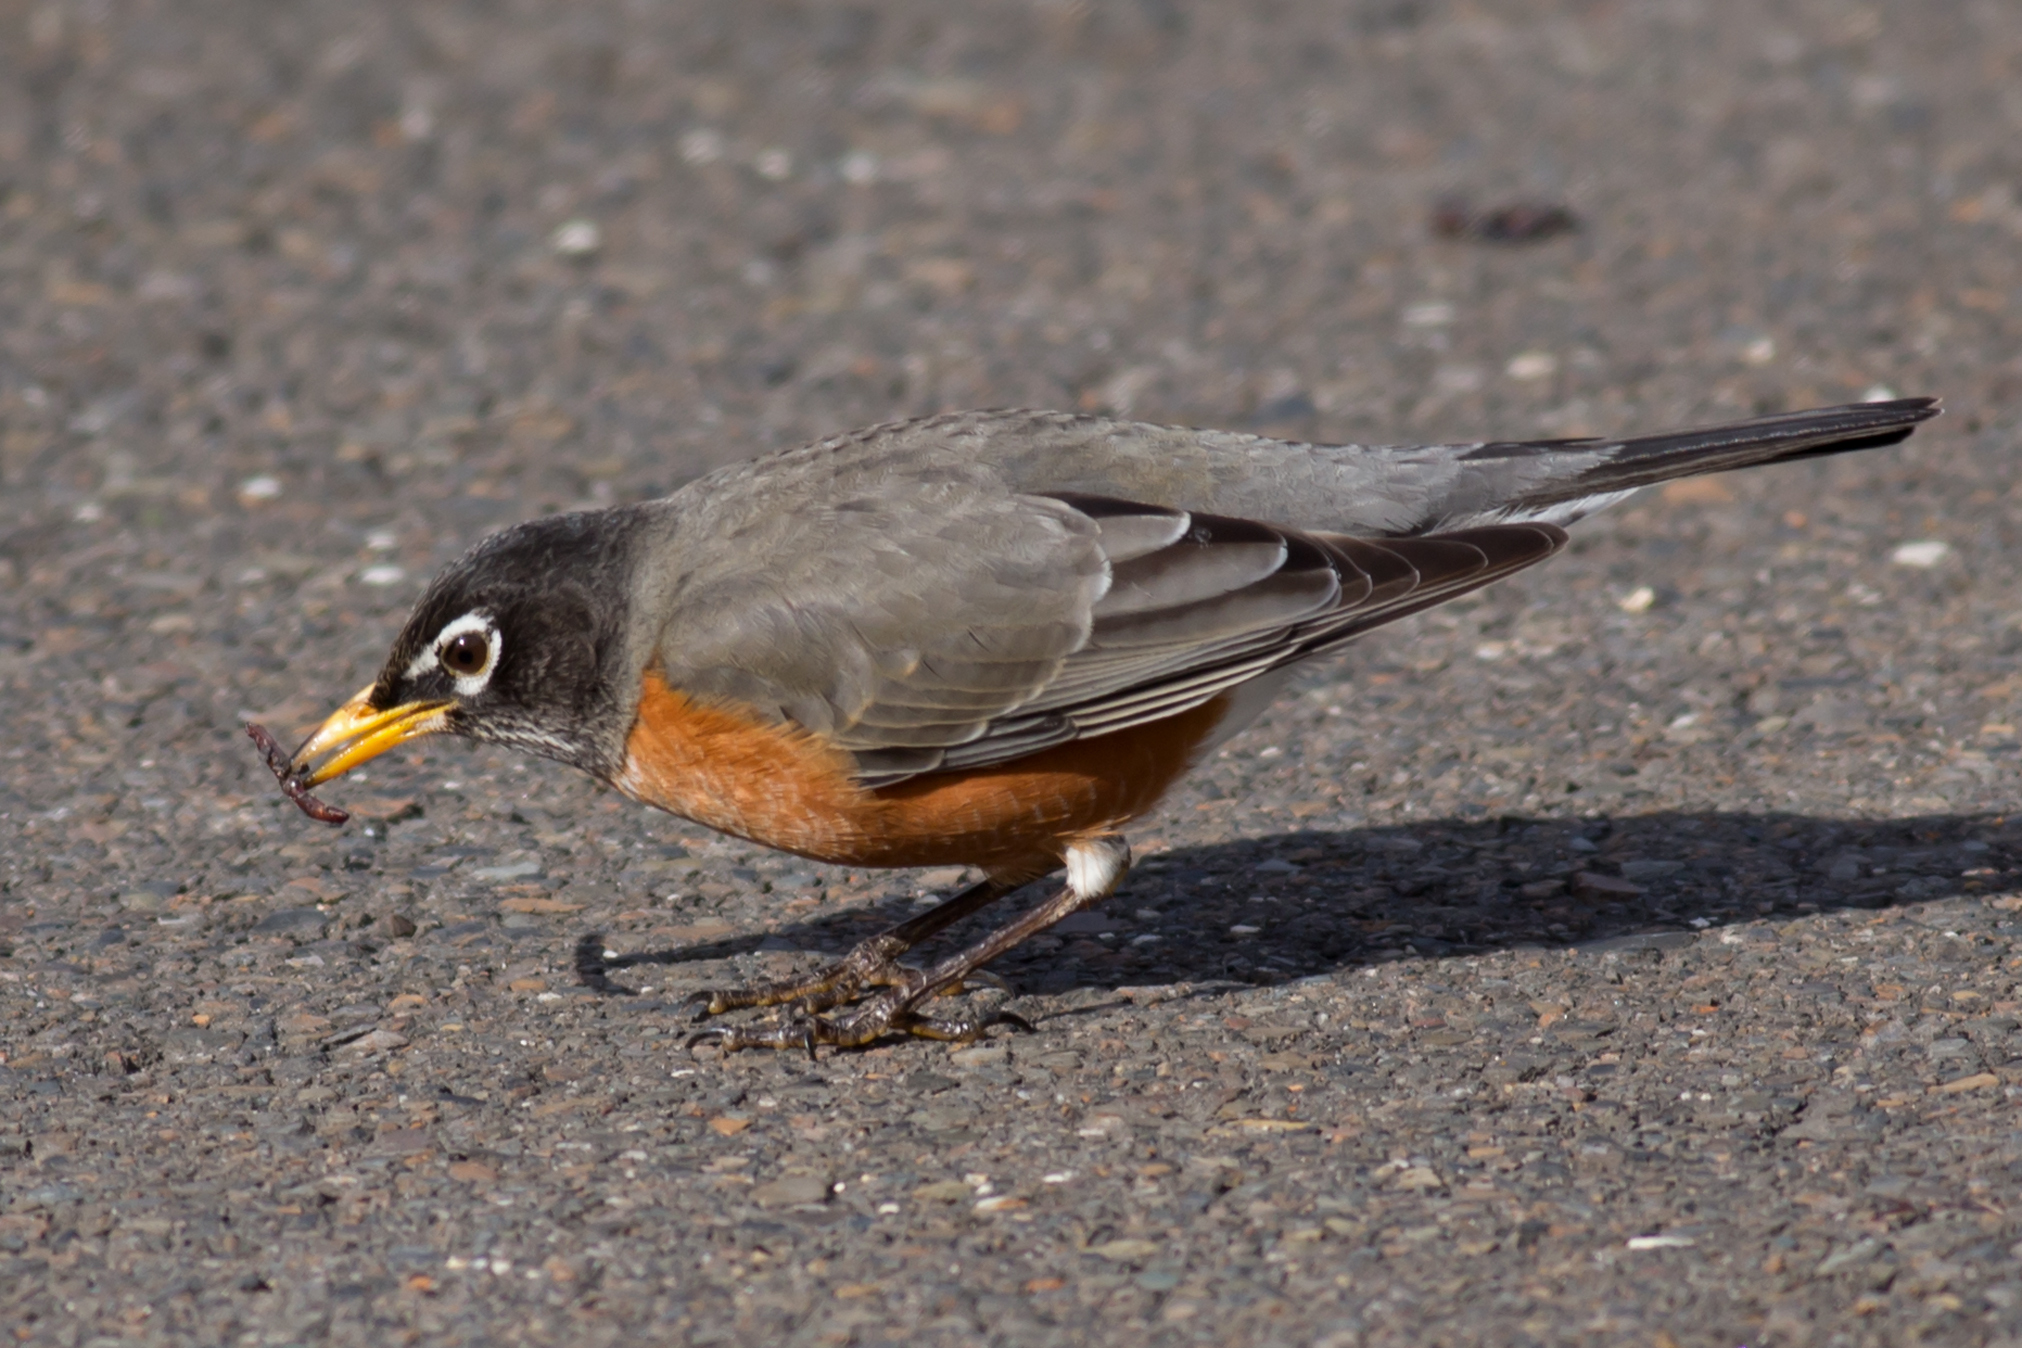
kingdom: Animalia
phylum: Chordata
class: Aves
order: Passeriformes
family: Turdidae
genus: Turdus
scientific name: Turdus migratorius
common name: American robin
